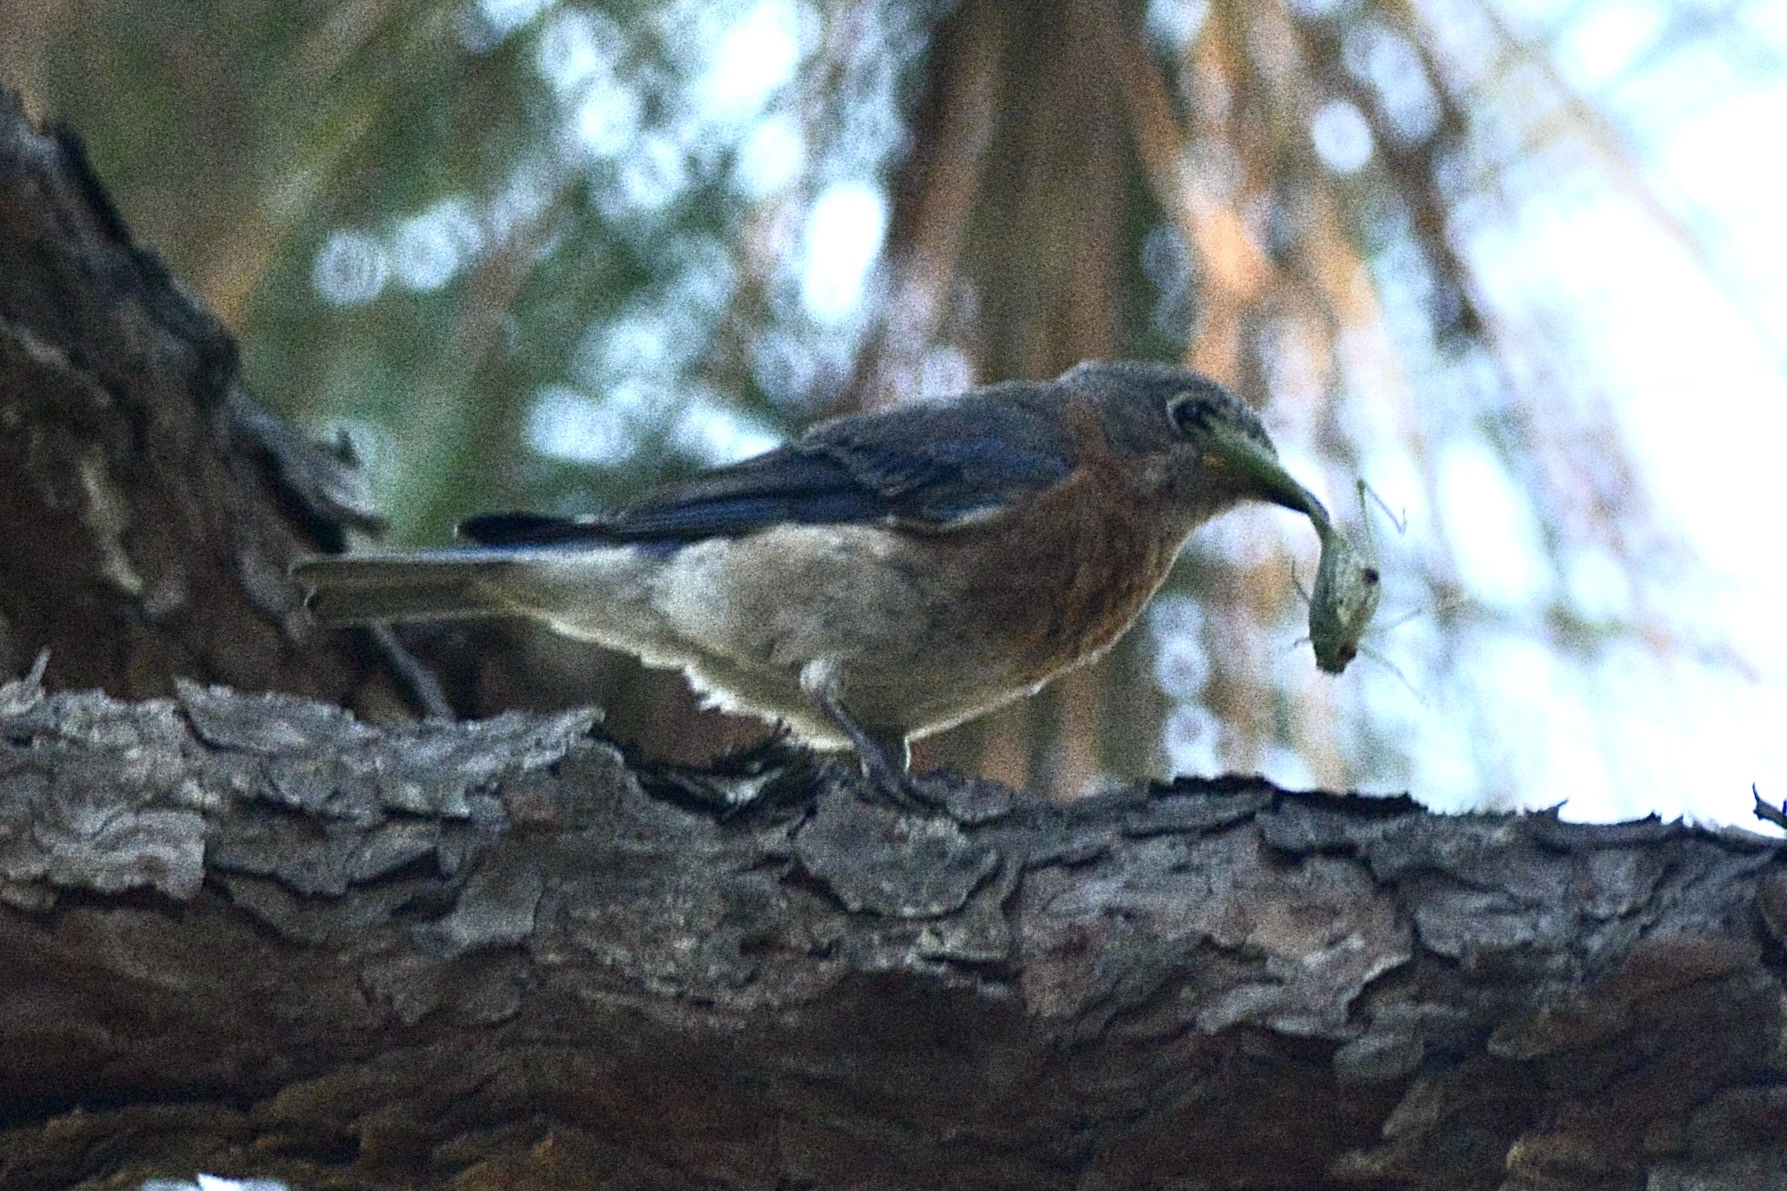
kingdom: Animalia
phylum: Chordata
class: Aves
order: Passeriformes
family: Turdidae
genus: Sialia
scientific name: Sialia sialis
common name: Eastern bluebird
